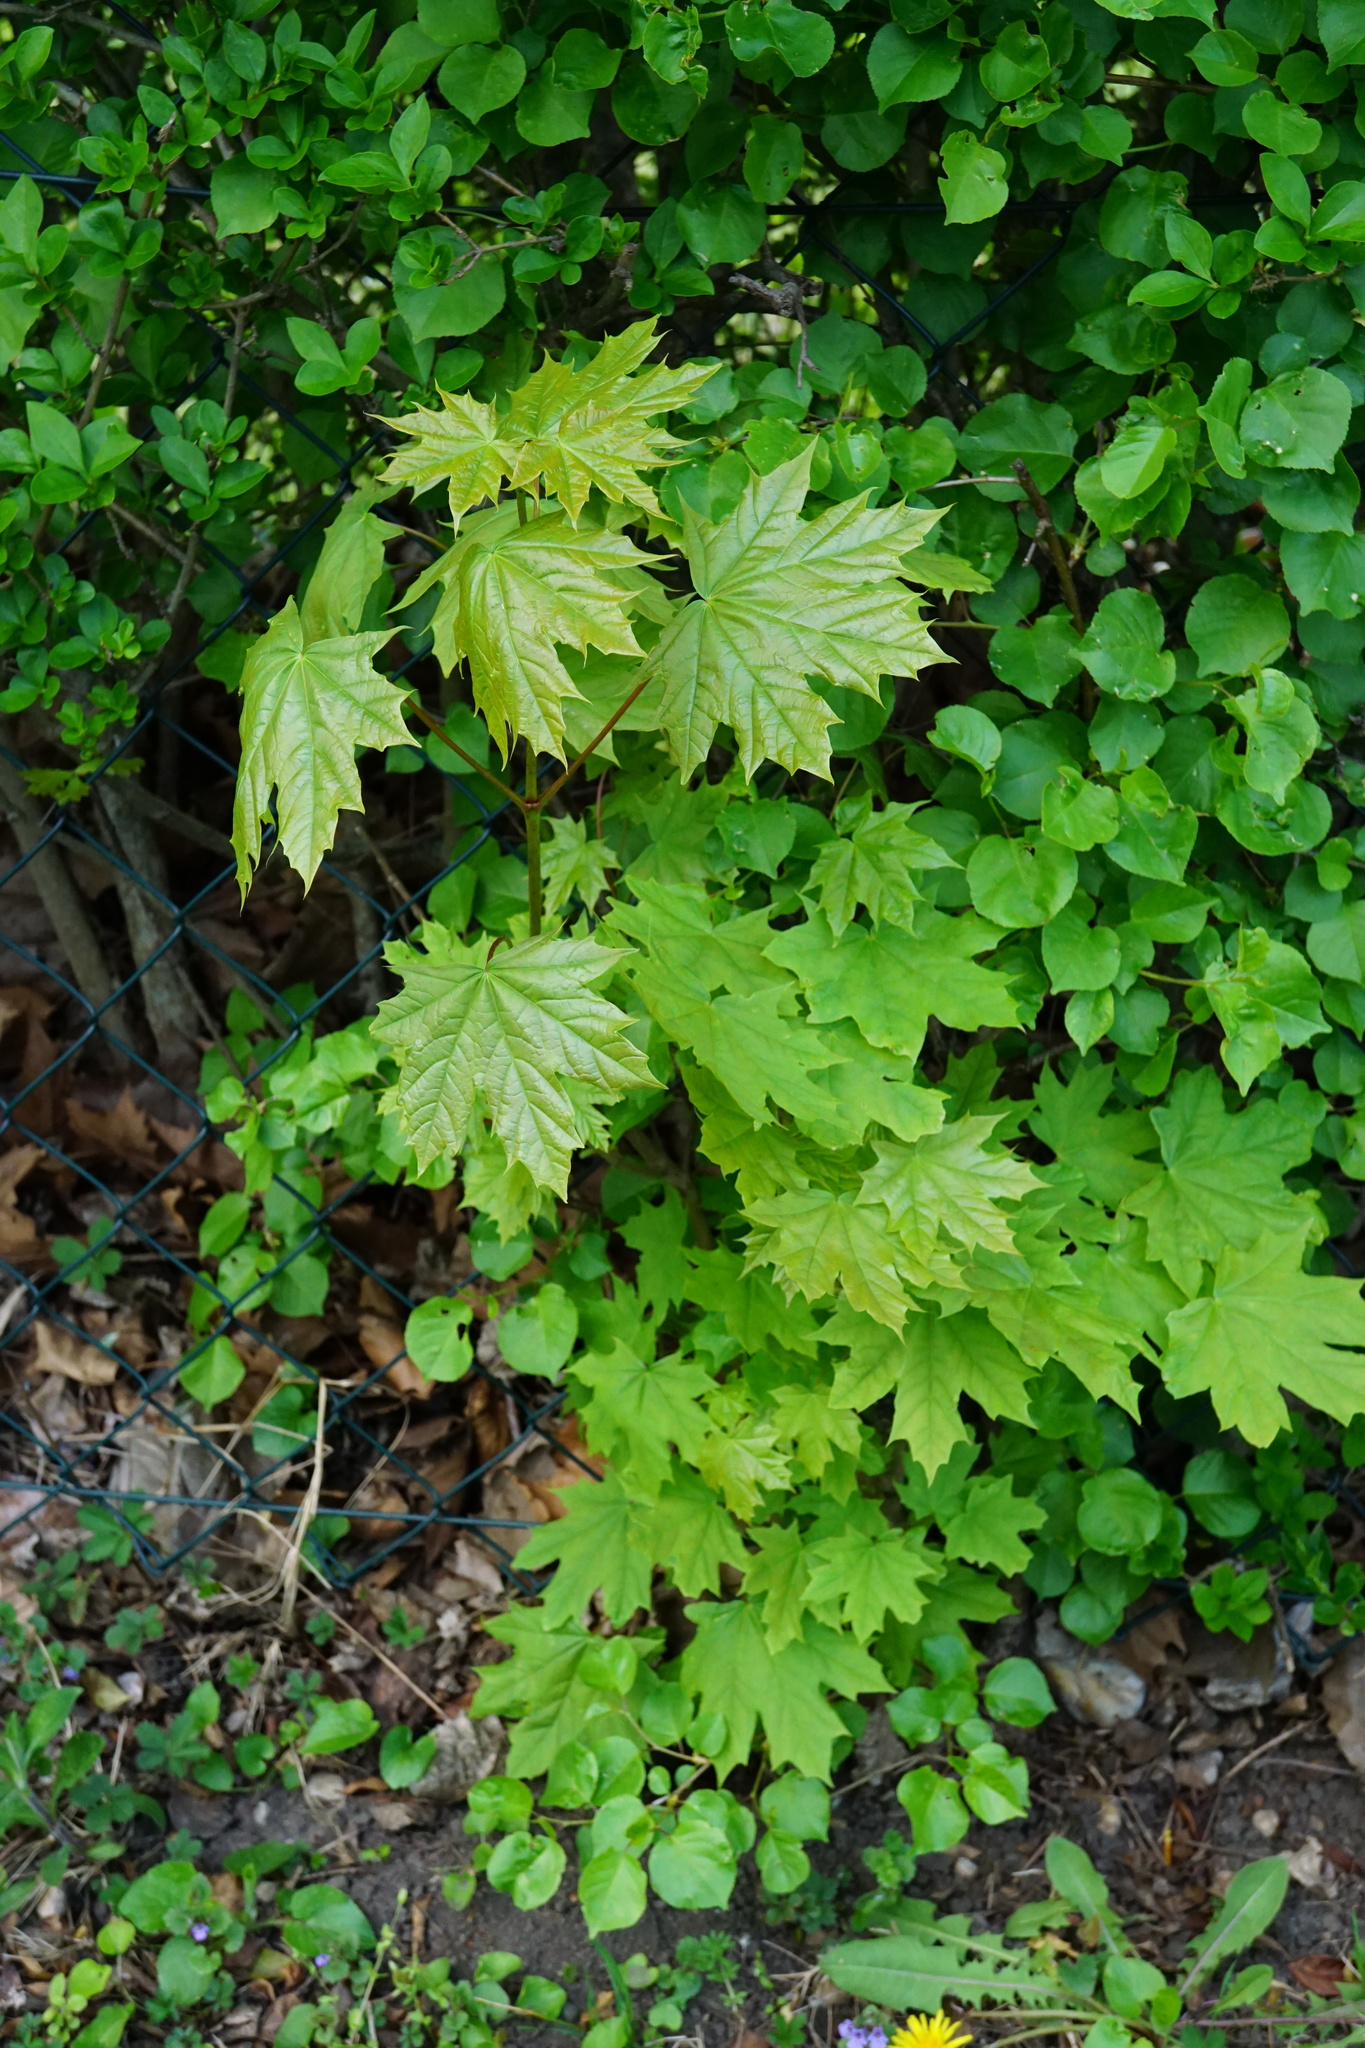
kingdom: Plantae
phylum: Tracheophyta
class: Magnoliopsida
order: Sapindales
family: Sapindaceae
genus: Acer
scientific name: Acer platanoides
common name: Norway maple
